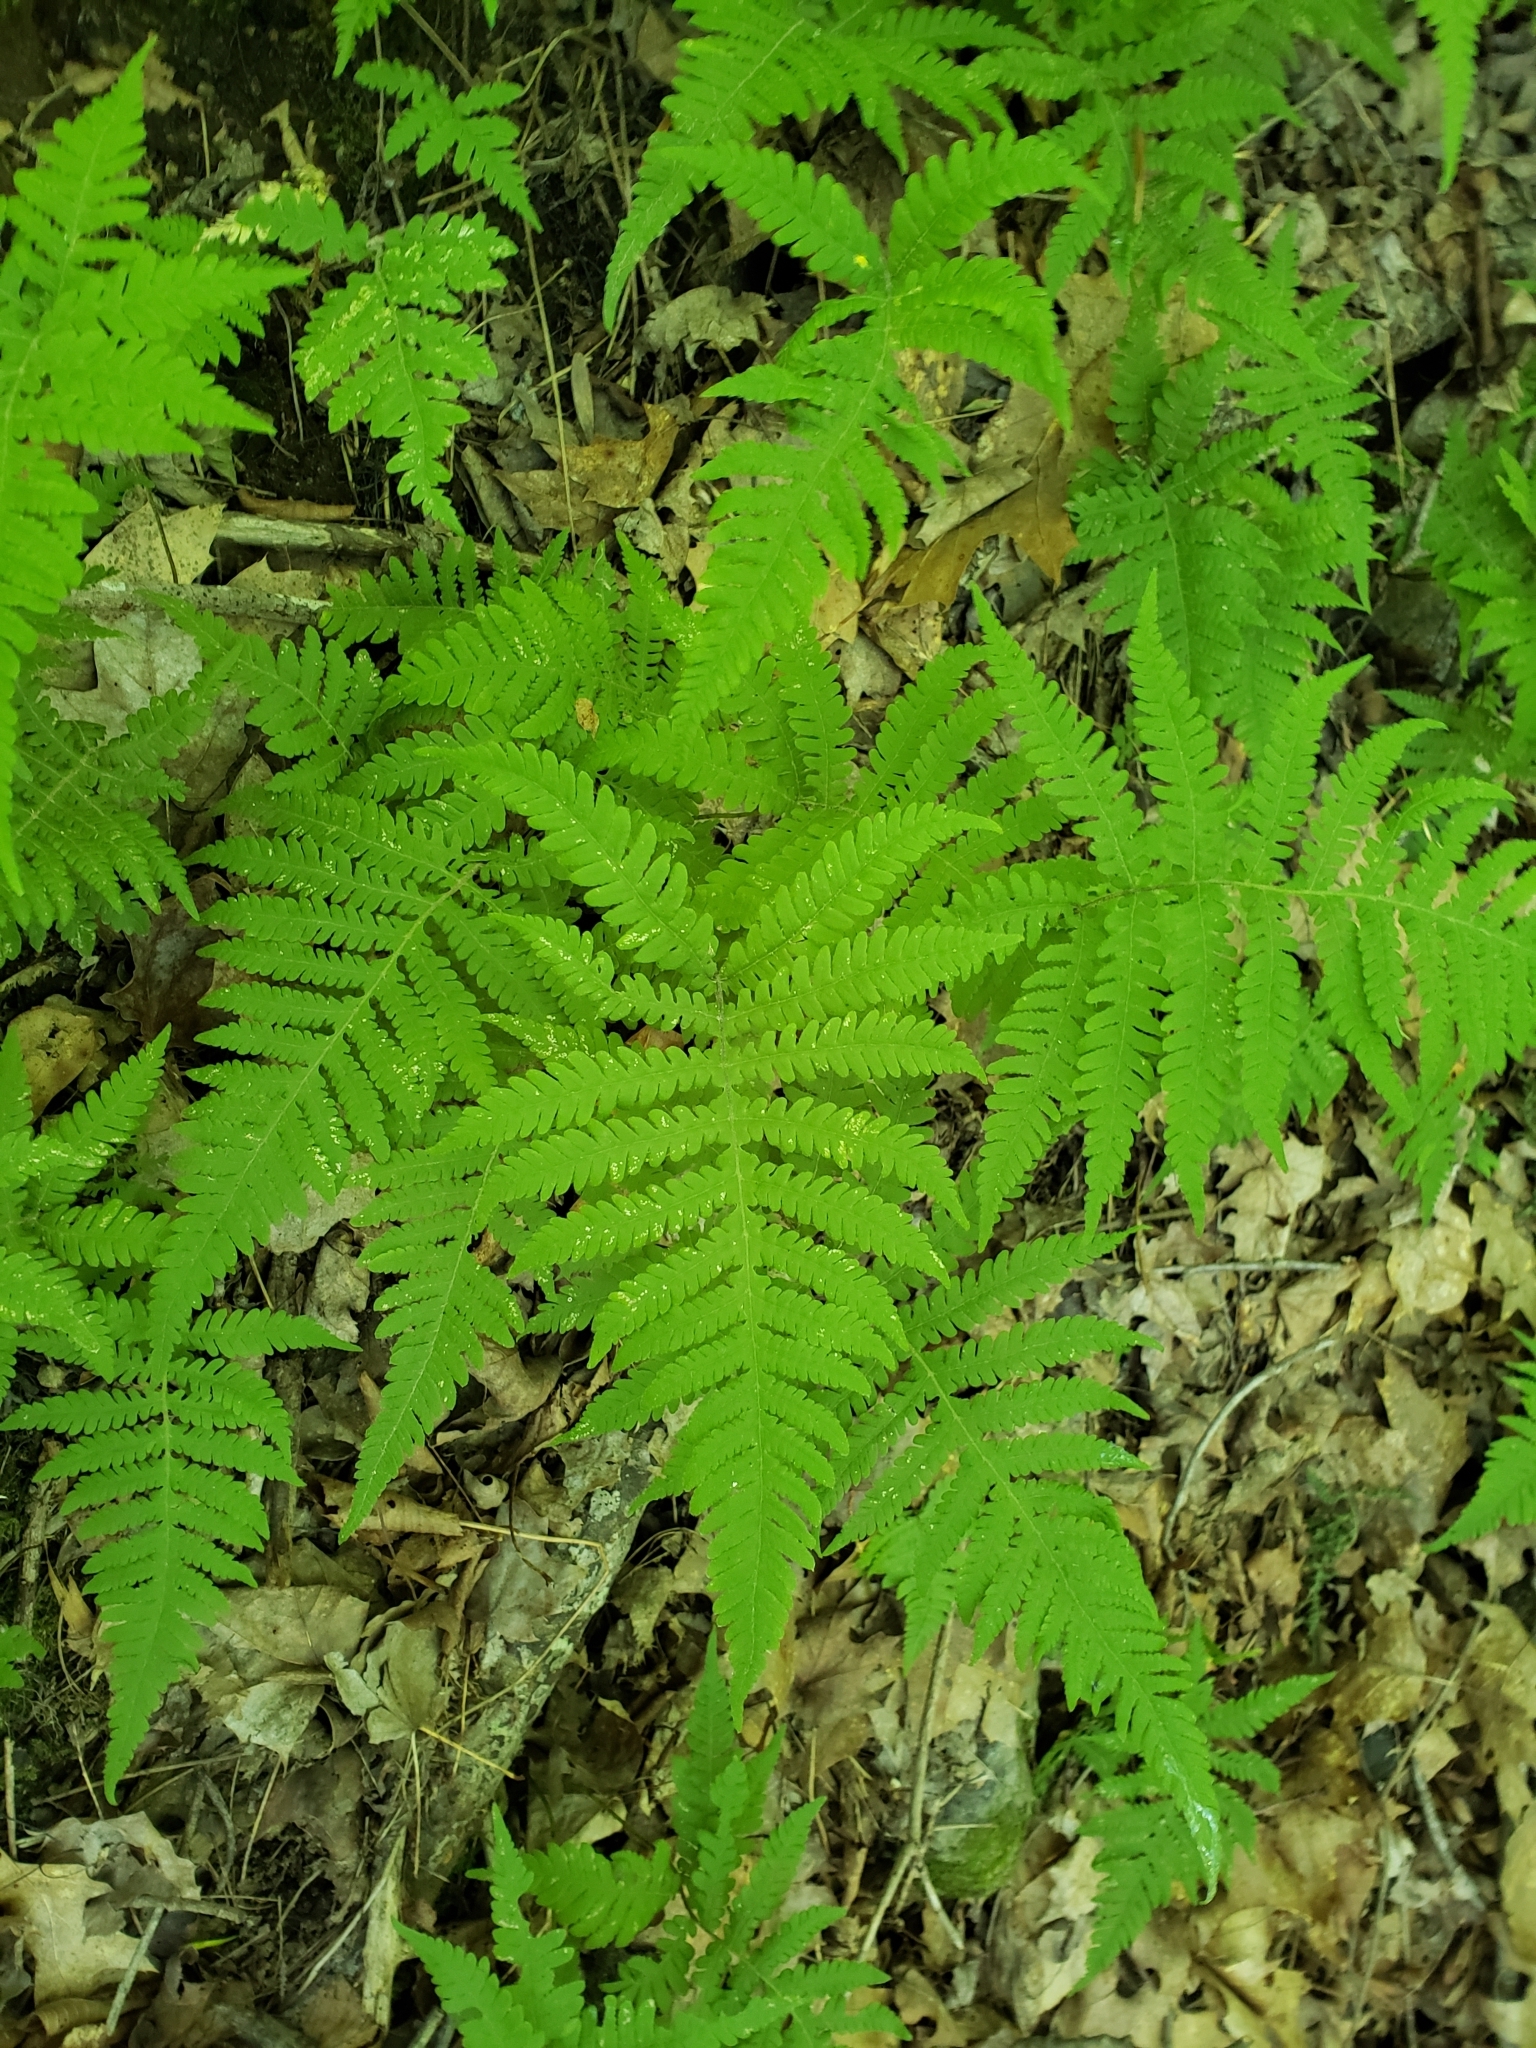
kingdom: Plantae
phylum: Tracheophyta
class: Polypodiopsida
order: Polypodiales
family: Thelypteridaceae
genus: Phegopteris
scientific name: Phegopteris connectilis
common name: Beech fern
